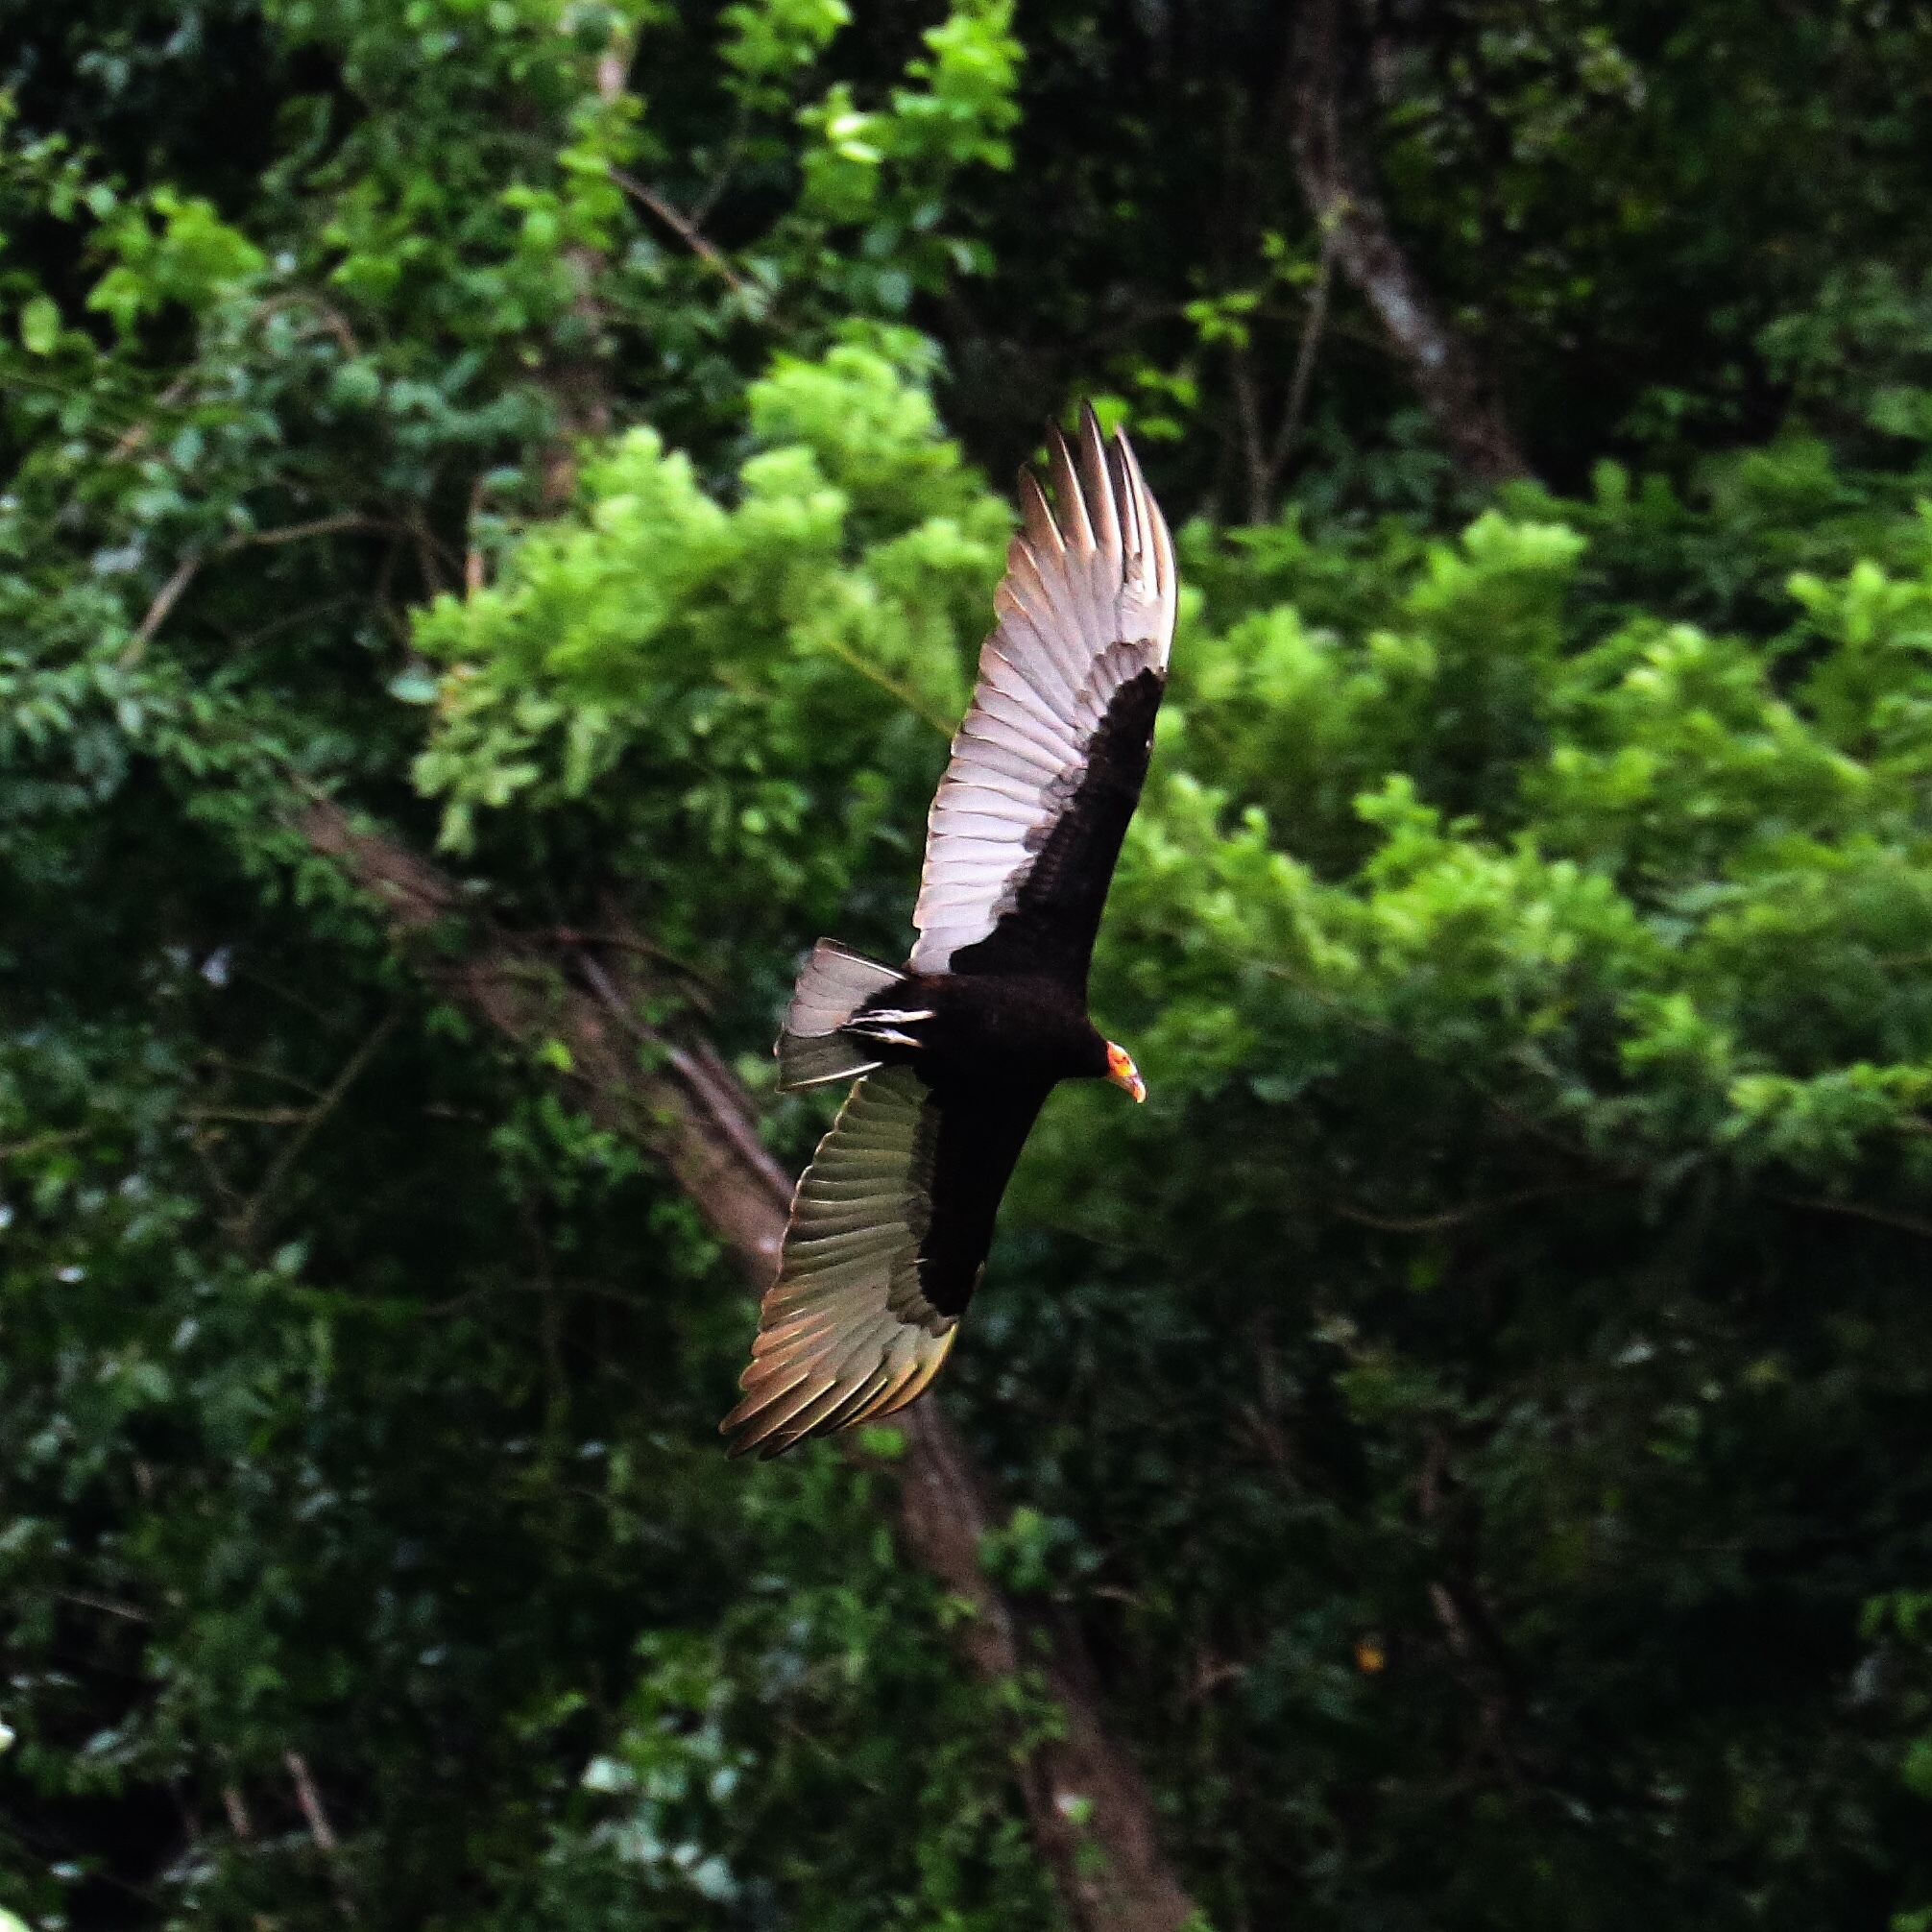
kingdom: Animalia
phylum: Chordata
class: Aves
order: Accipitriformes
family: Cathartidae
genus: Cathartes
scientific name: Cathartes burrovianus
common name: Lesser yellow-headed vulture
